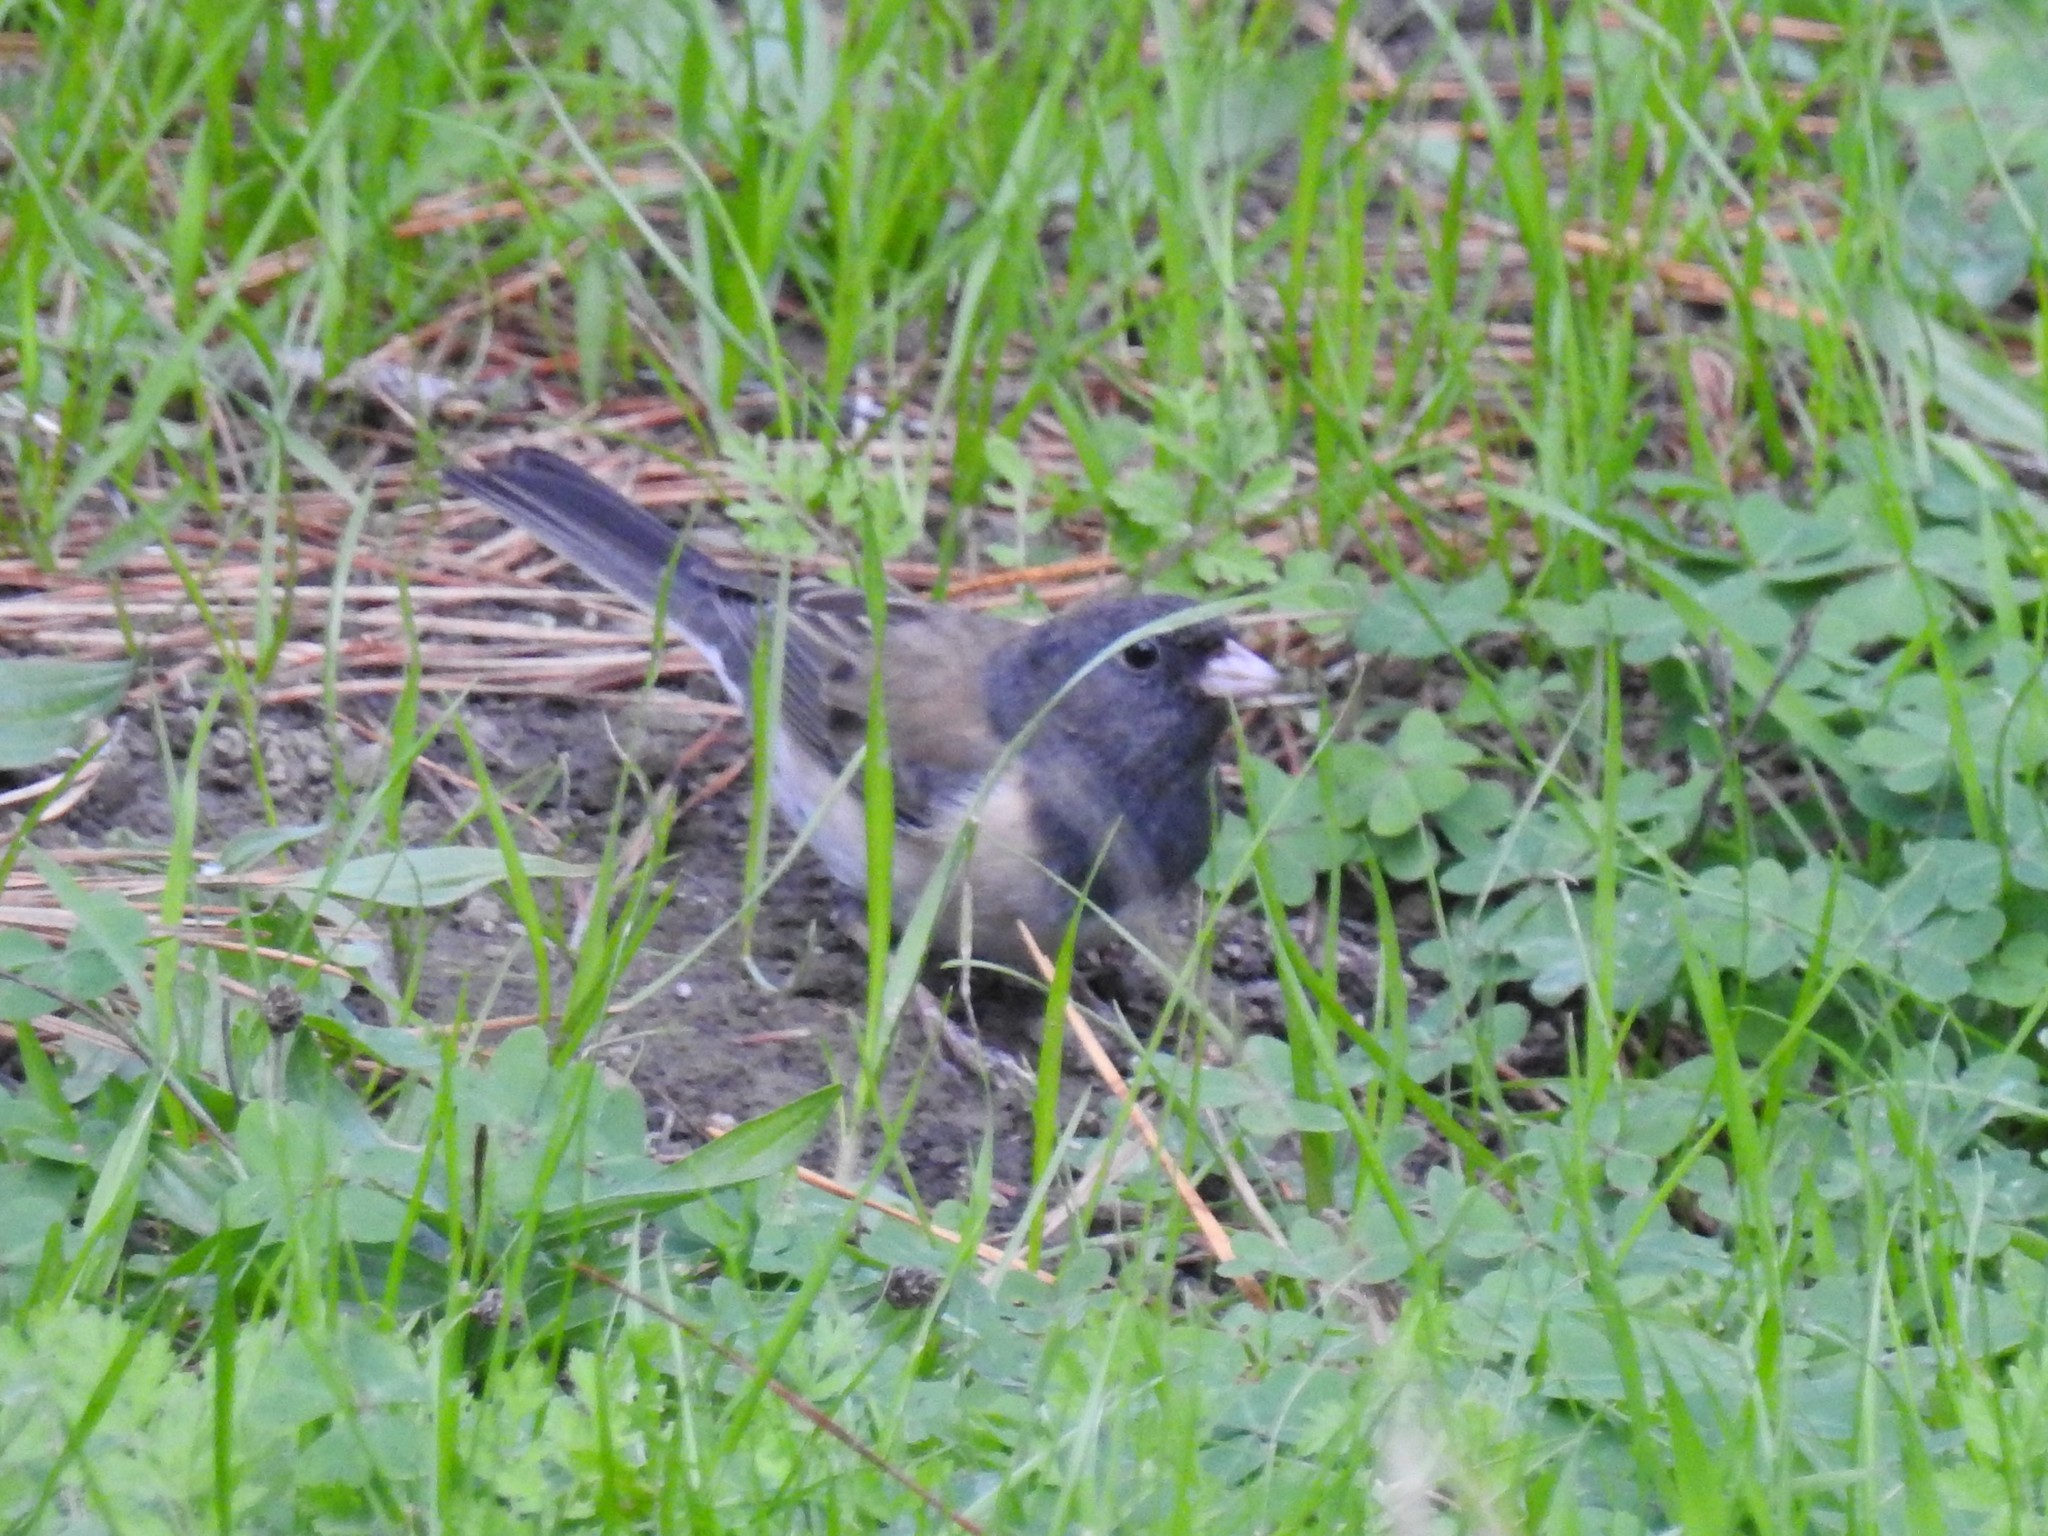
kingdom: Animalia
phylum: Chordata
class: Aves
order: Passeriformes
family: Passerellidae
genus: Junco
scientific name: Junco hyemalis
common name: Dark-eyed junco
